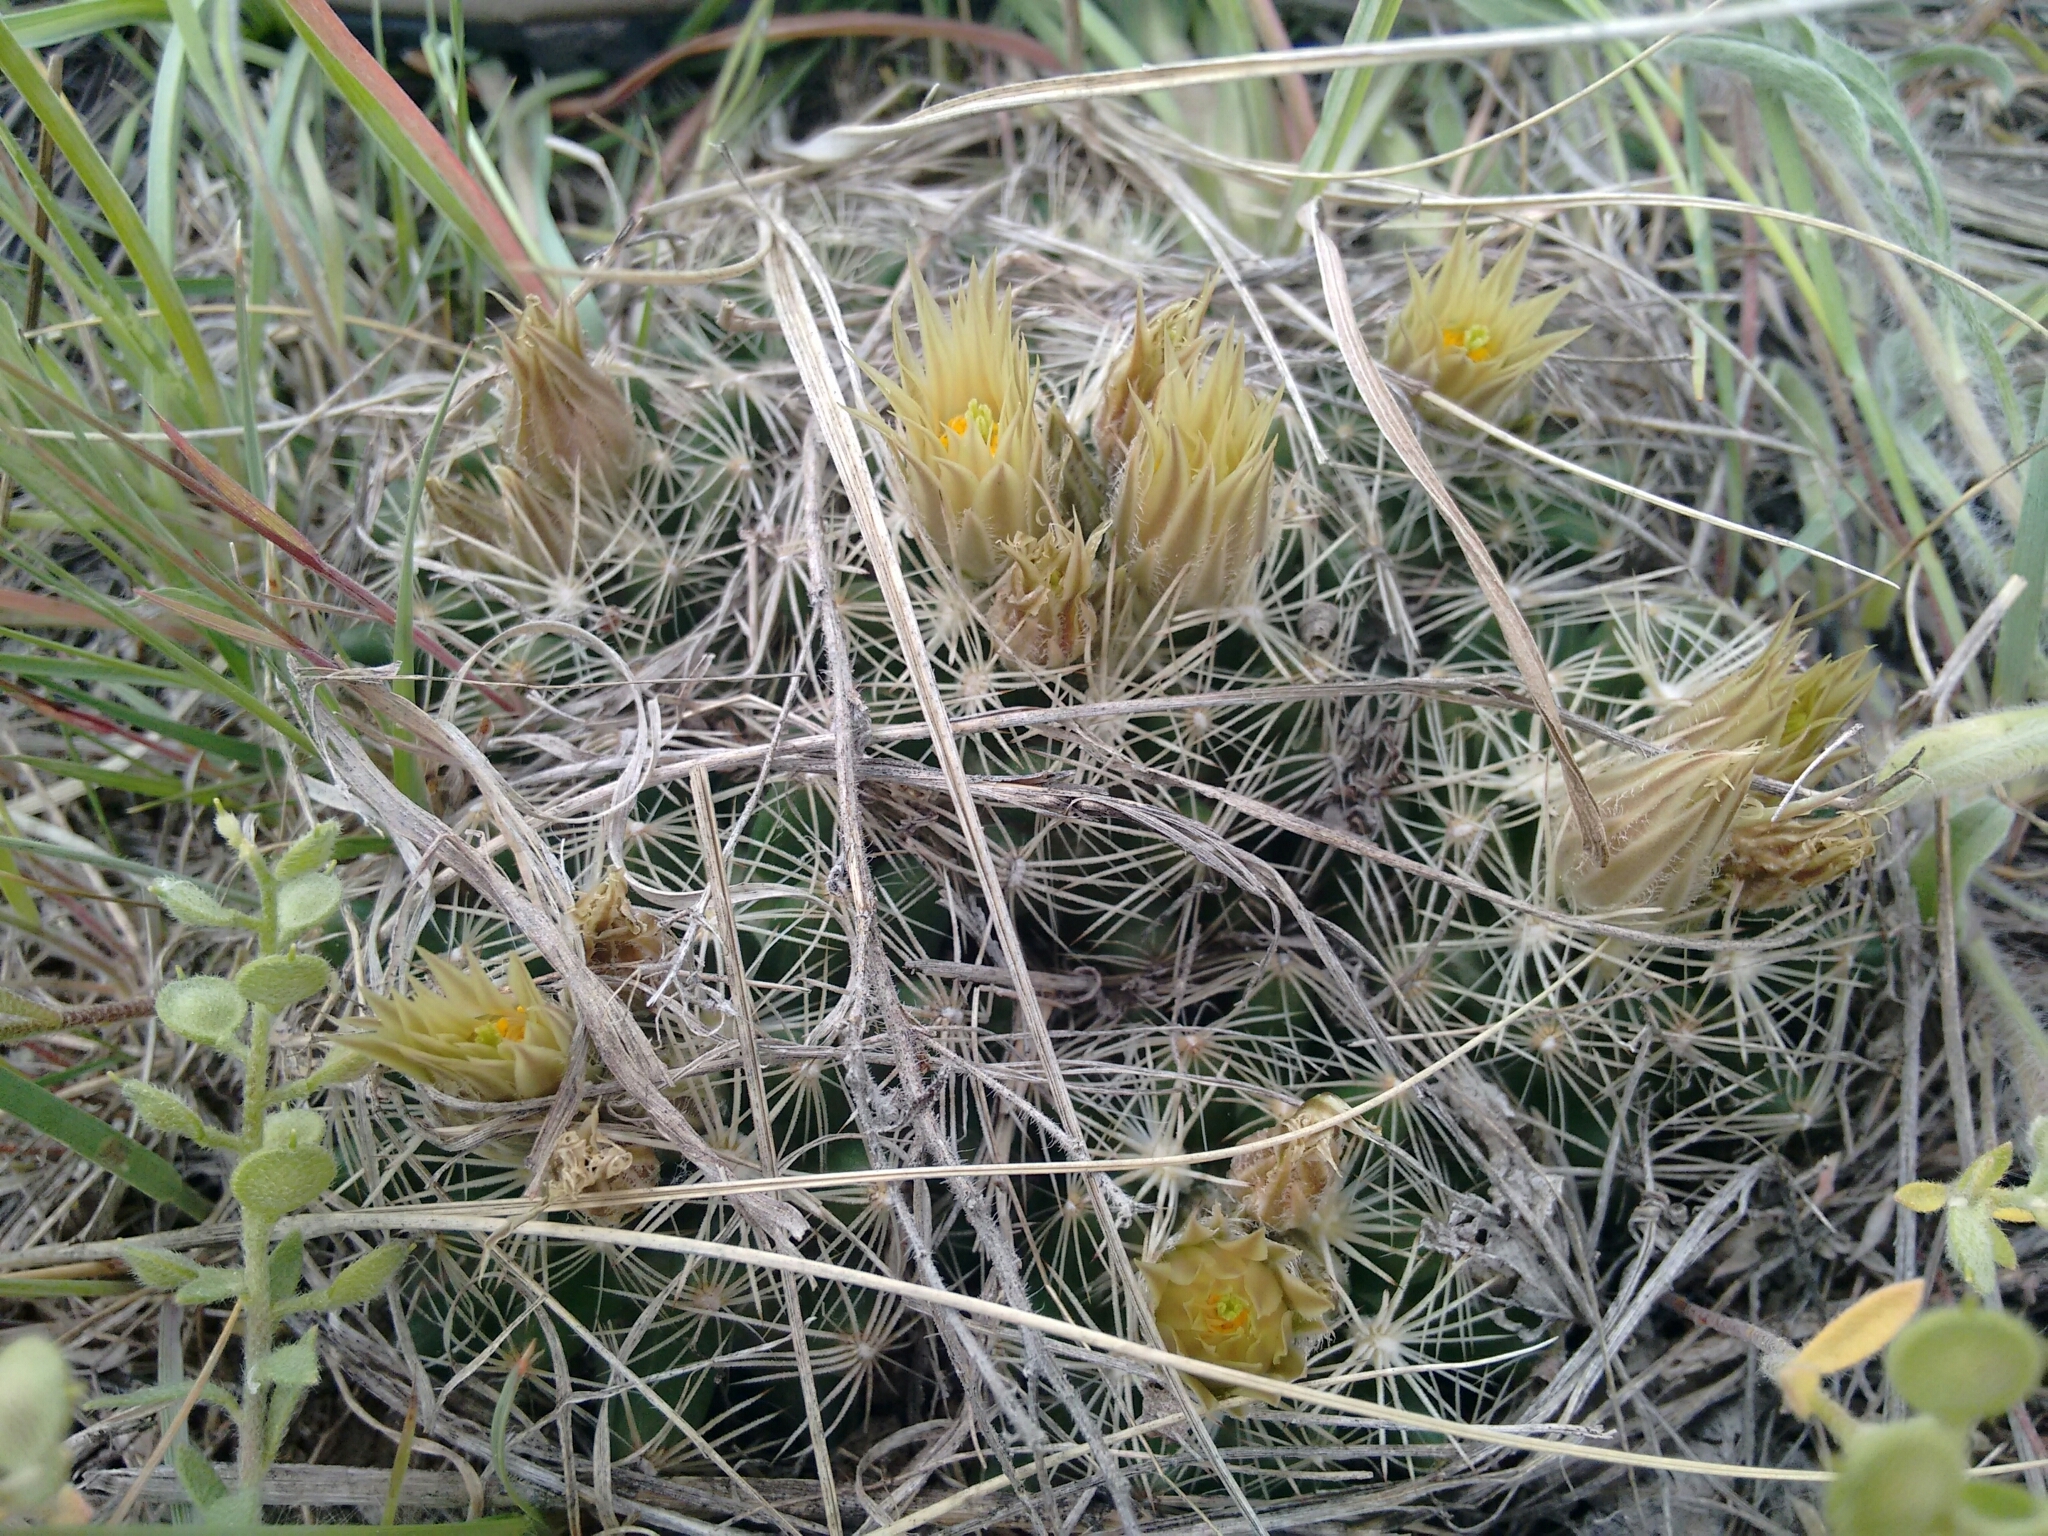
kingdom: Plantae
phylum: Tracheophyta
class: Magnoliopsida
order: Caryophyllales
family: Cactaceae
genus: Pelecyphora
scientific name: Pelecyphora missouriensis
